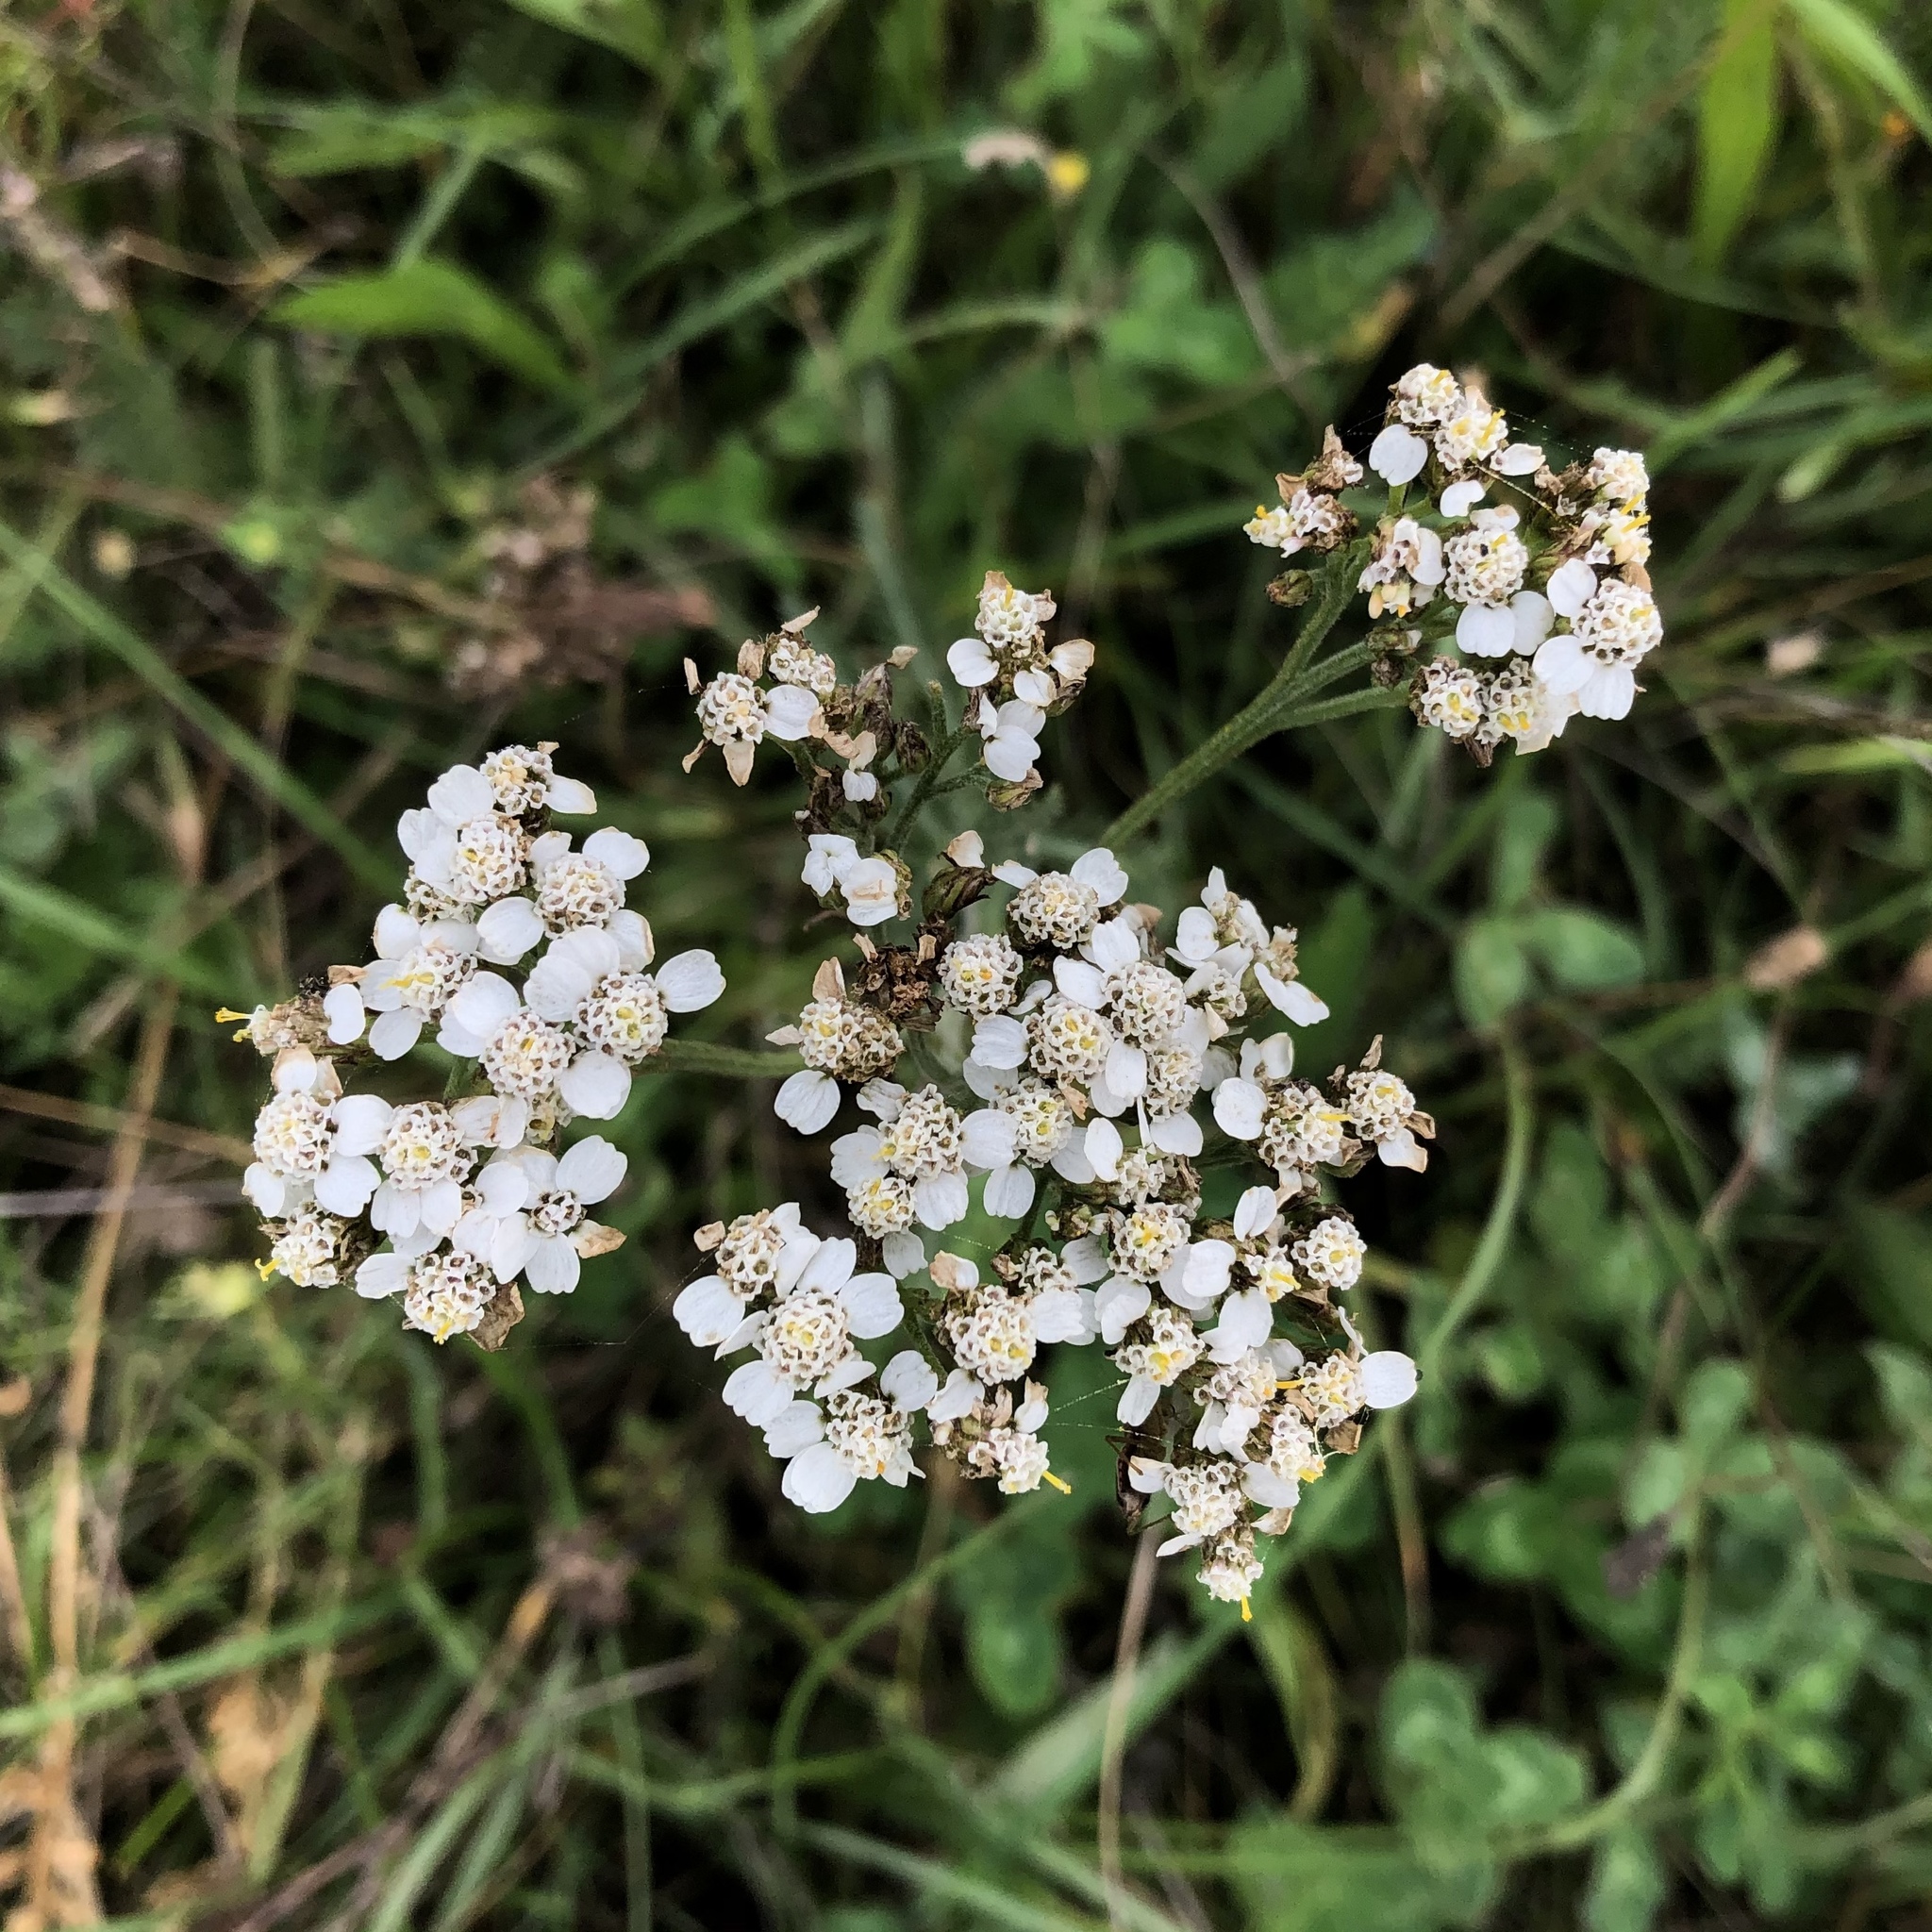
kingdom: Plantae
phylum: Tracheophyta
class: Magnoliopsida
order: Asterales
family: Asteraceae
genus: Achillea
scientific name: Achillea millefolium
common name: Yarrow
